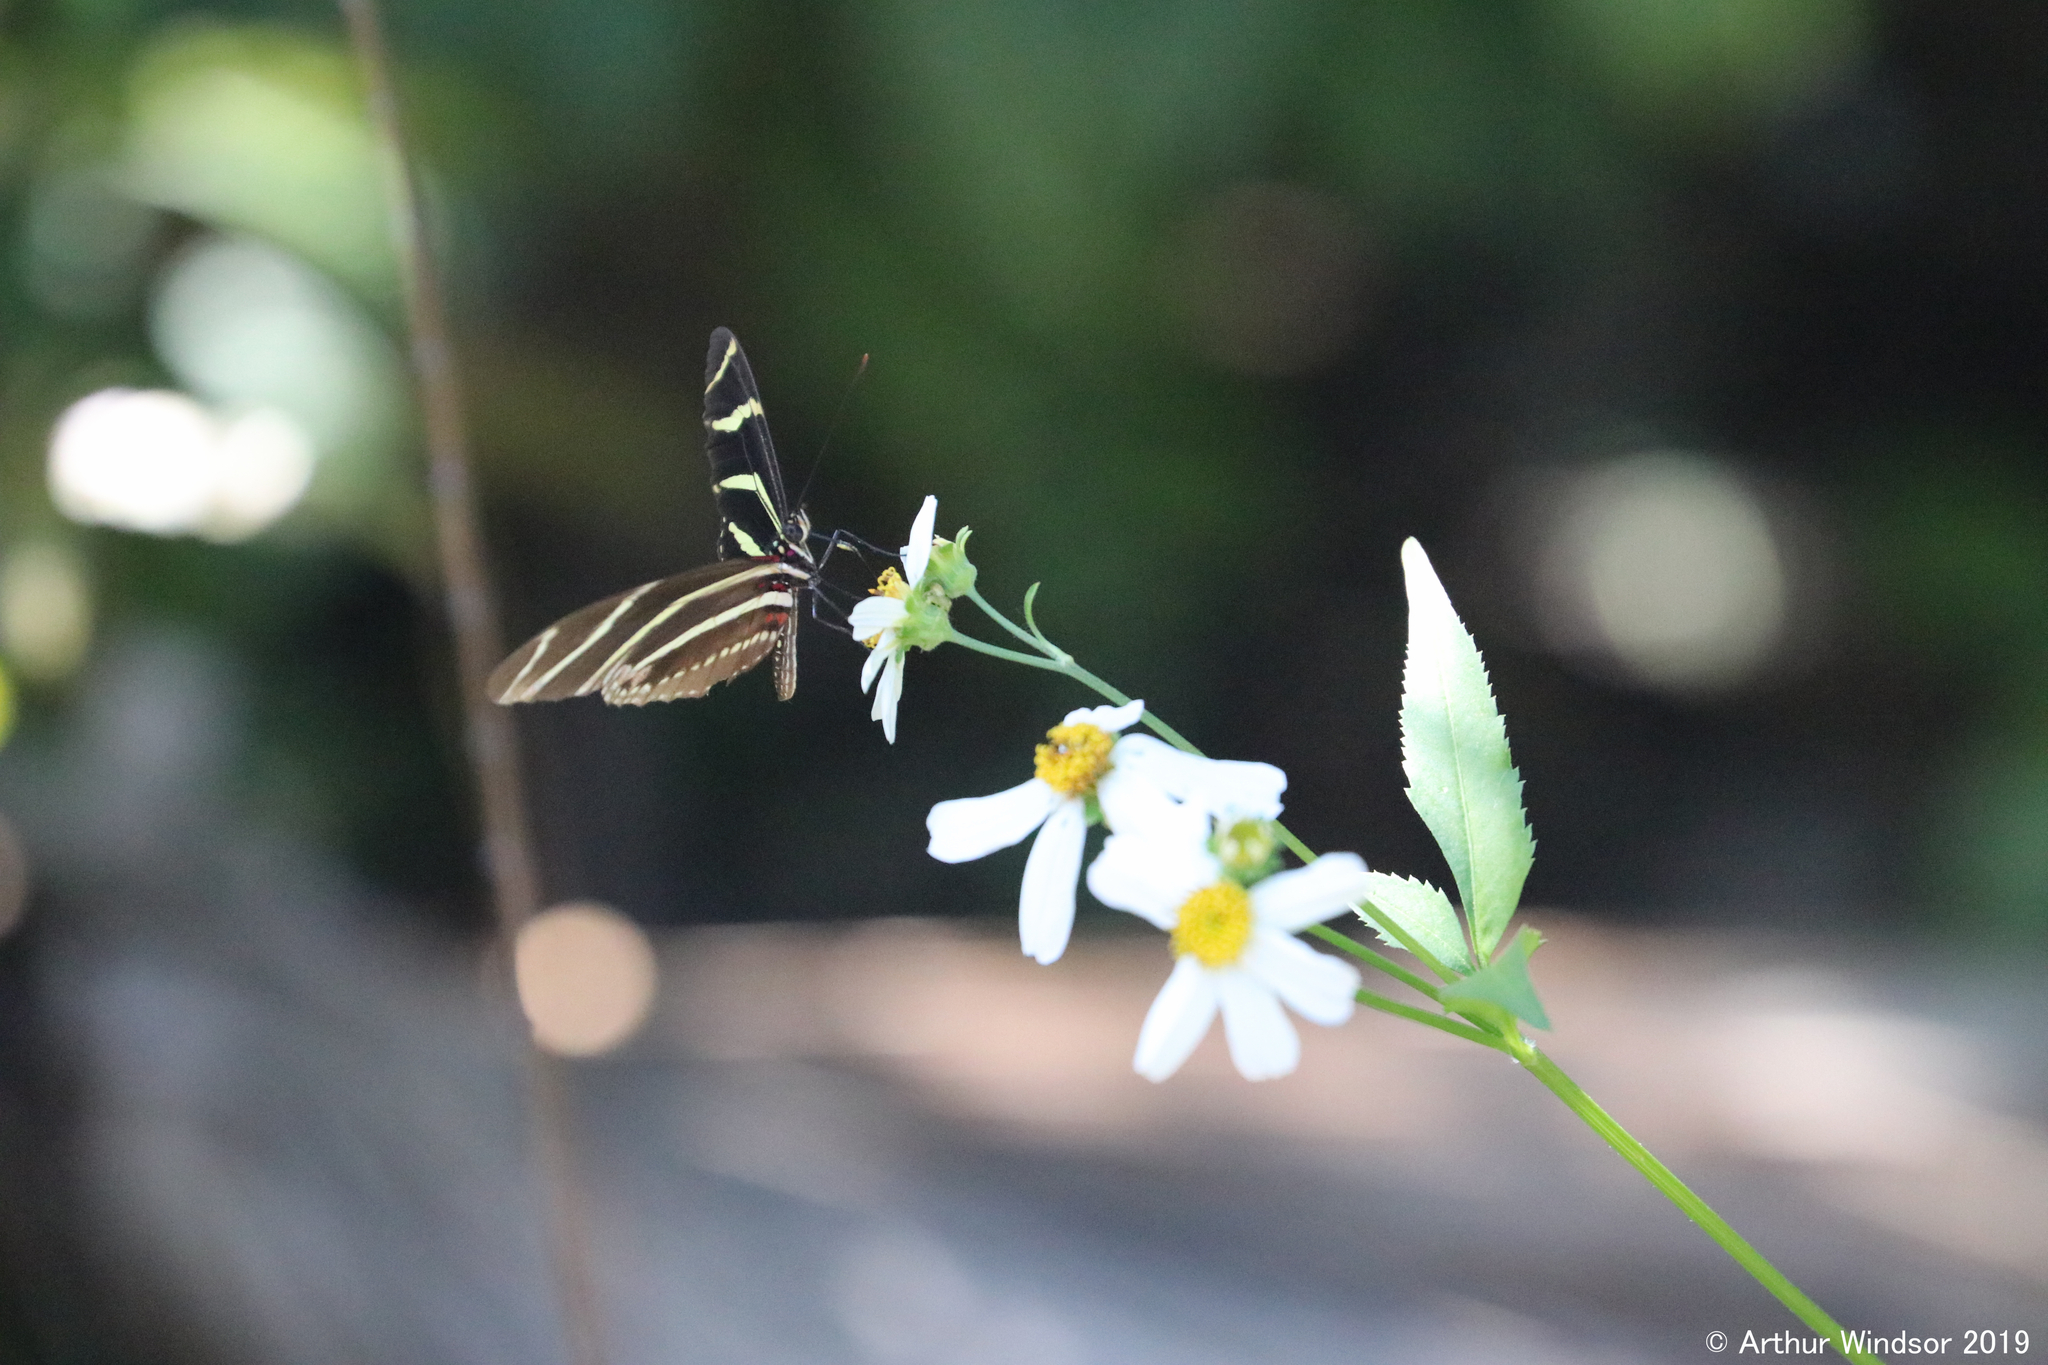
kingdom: Animalia
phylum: Arthropoda
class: Insecta
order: Lepidoptera
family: Nymphalidae
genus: Heliconius
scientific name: Heliconius charithonia
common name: Zebra long wing
